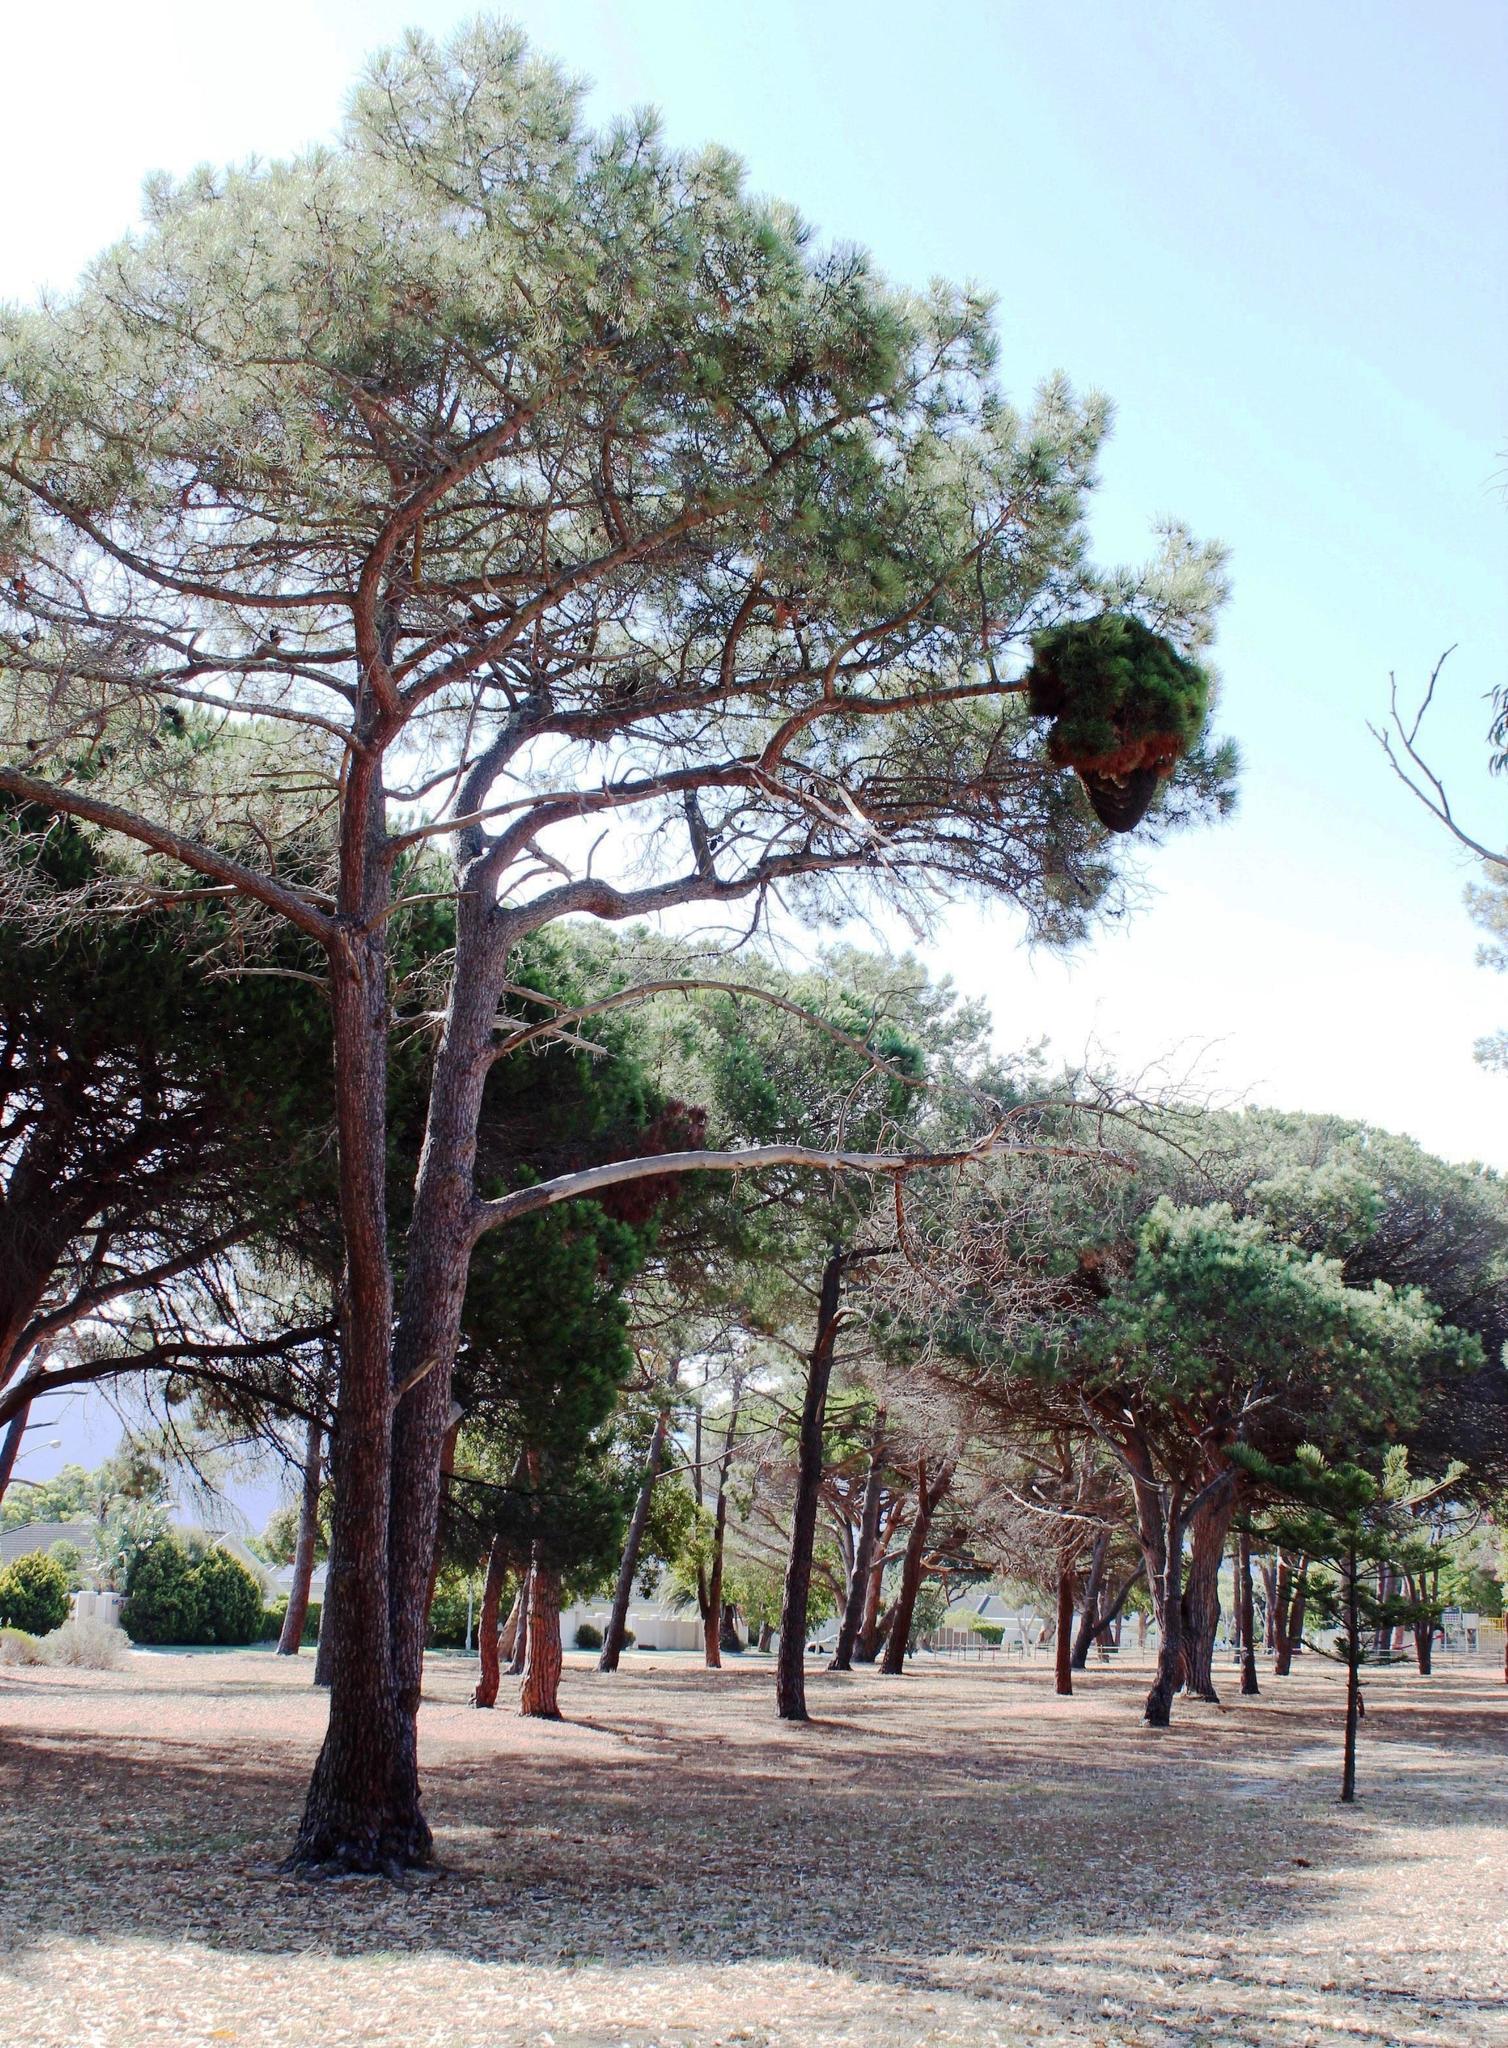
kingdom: Animalia
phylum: Arthropoda
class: Insecta
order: Hymenoptera
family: Apidae
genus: Apis
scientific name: Apis mellifera
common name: Honey bee
